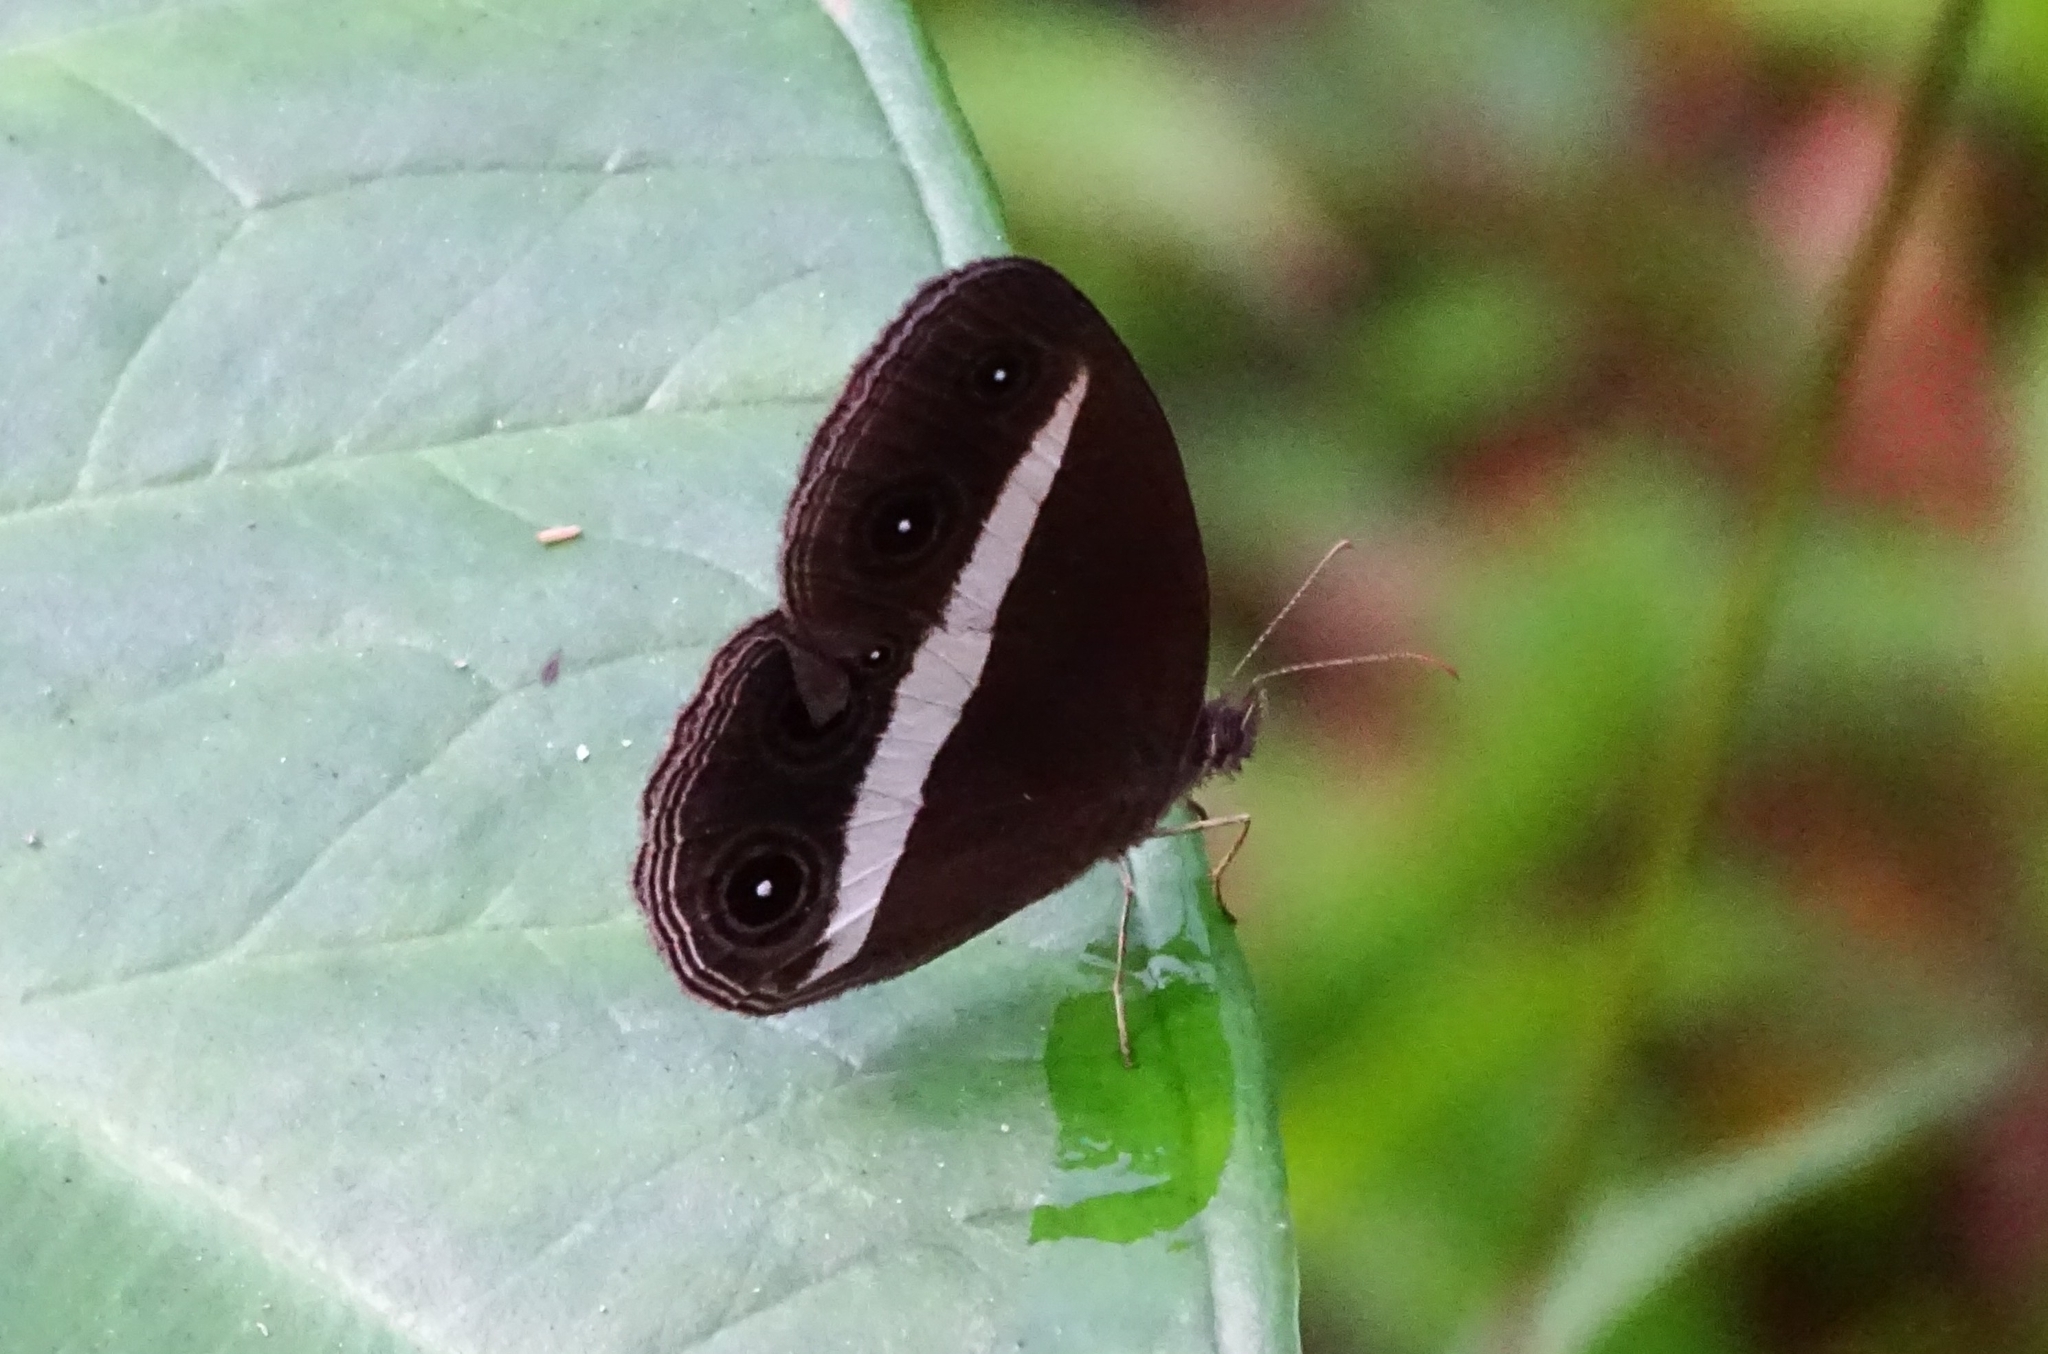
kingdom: Animalia
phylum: Arthropoda
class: Insecta
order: Lepidoptera
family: Nymphalidae
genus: Orsotriaena
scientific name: Orsotriaena medus
